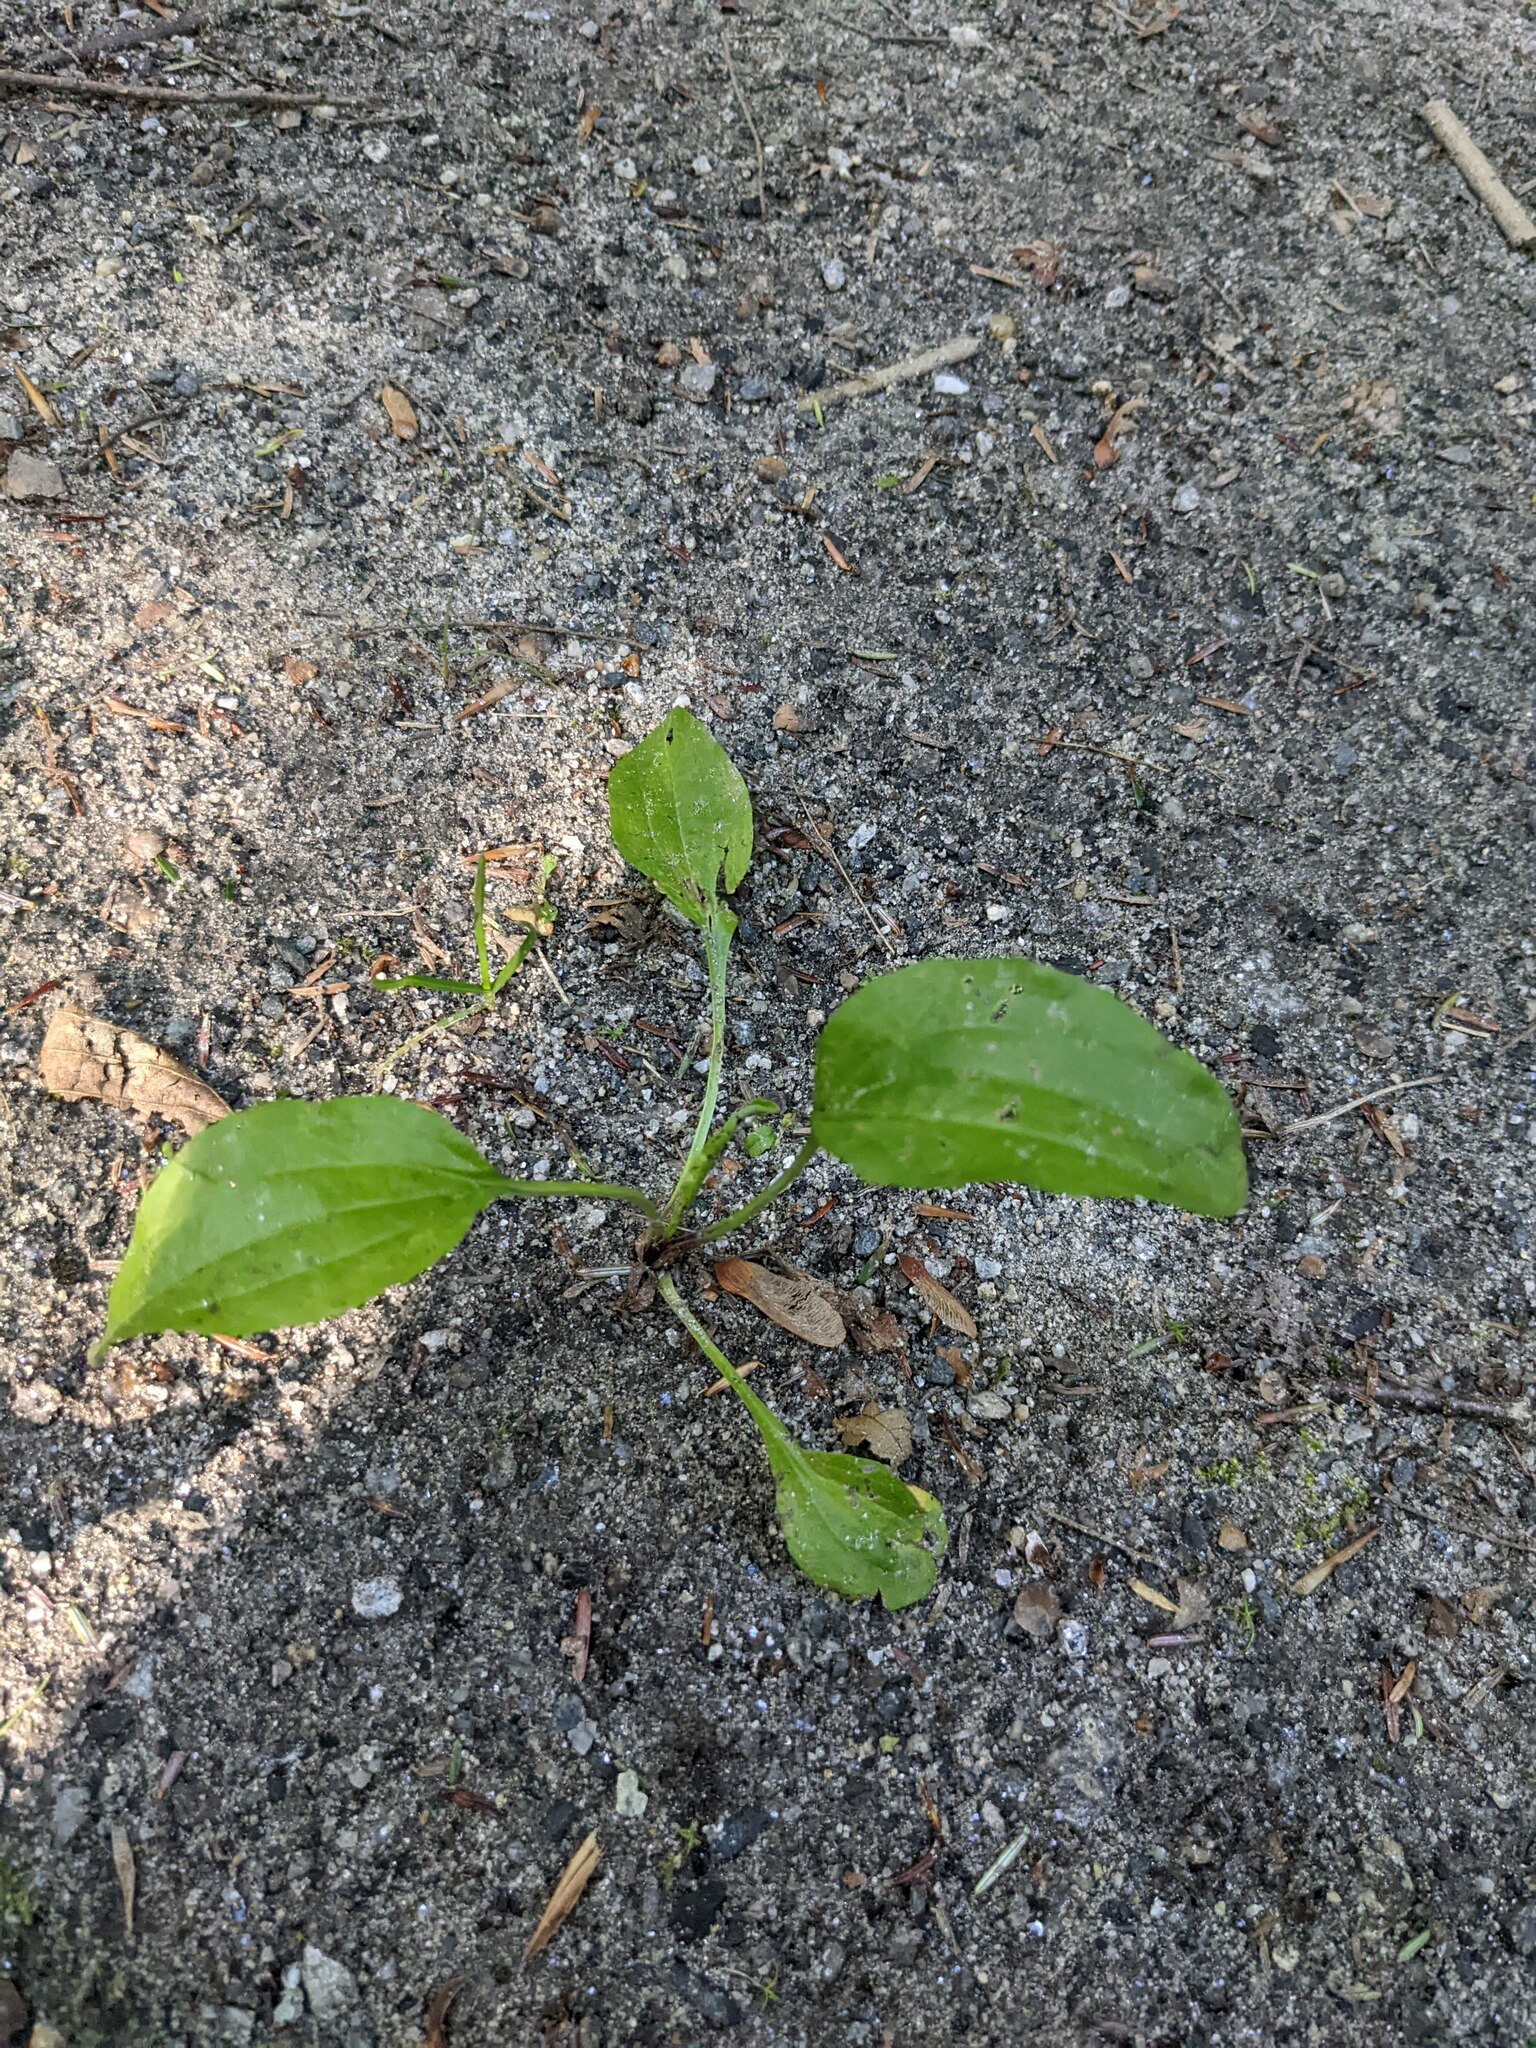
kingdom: Plantae
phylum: Tracheophyta
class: Magnoliopsida
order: Lamiales
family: Plantaginaceae
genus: Plantago
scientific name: Plantago rugelii
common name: American plantain
